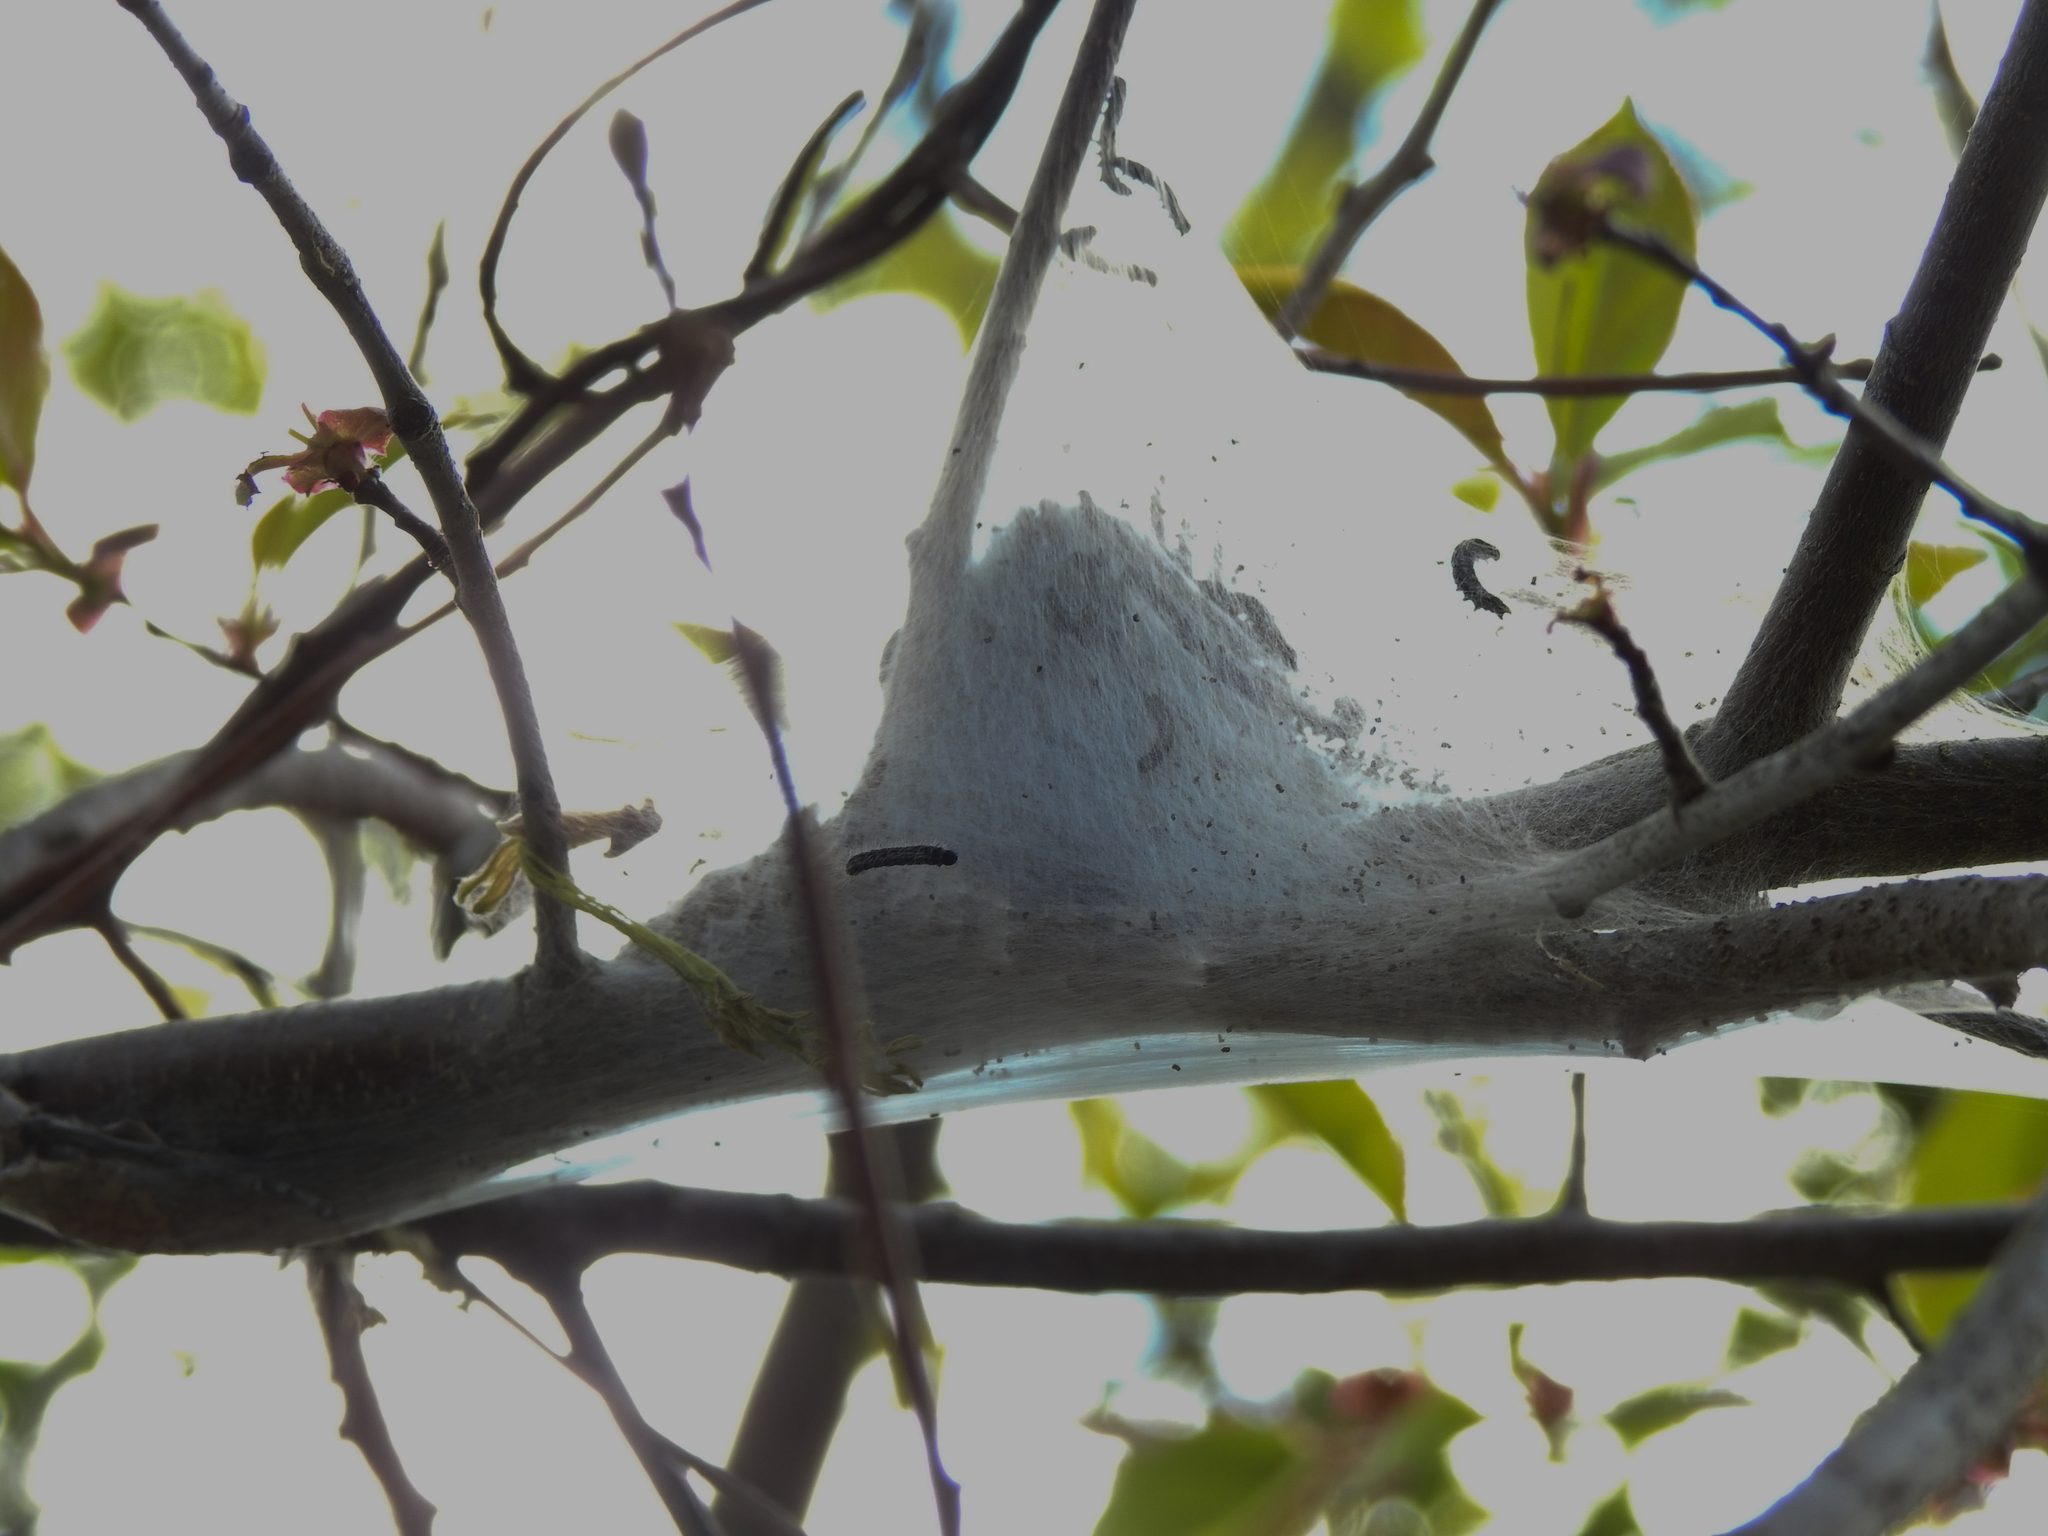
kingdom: Animalia
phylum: Arthropoda
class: Insecta
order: Lepidoptera
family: Lasiocampidae
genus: Malacosoma
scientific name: Malacosoma americana
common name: Eastern tent caterpillar moth
